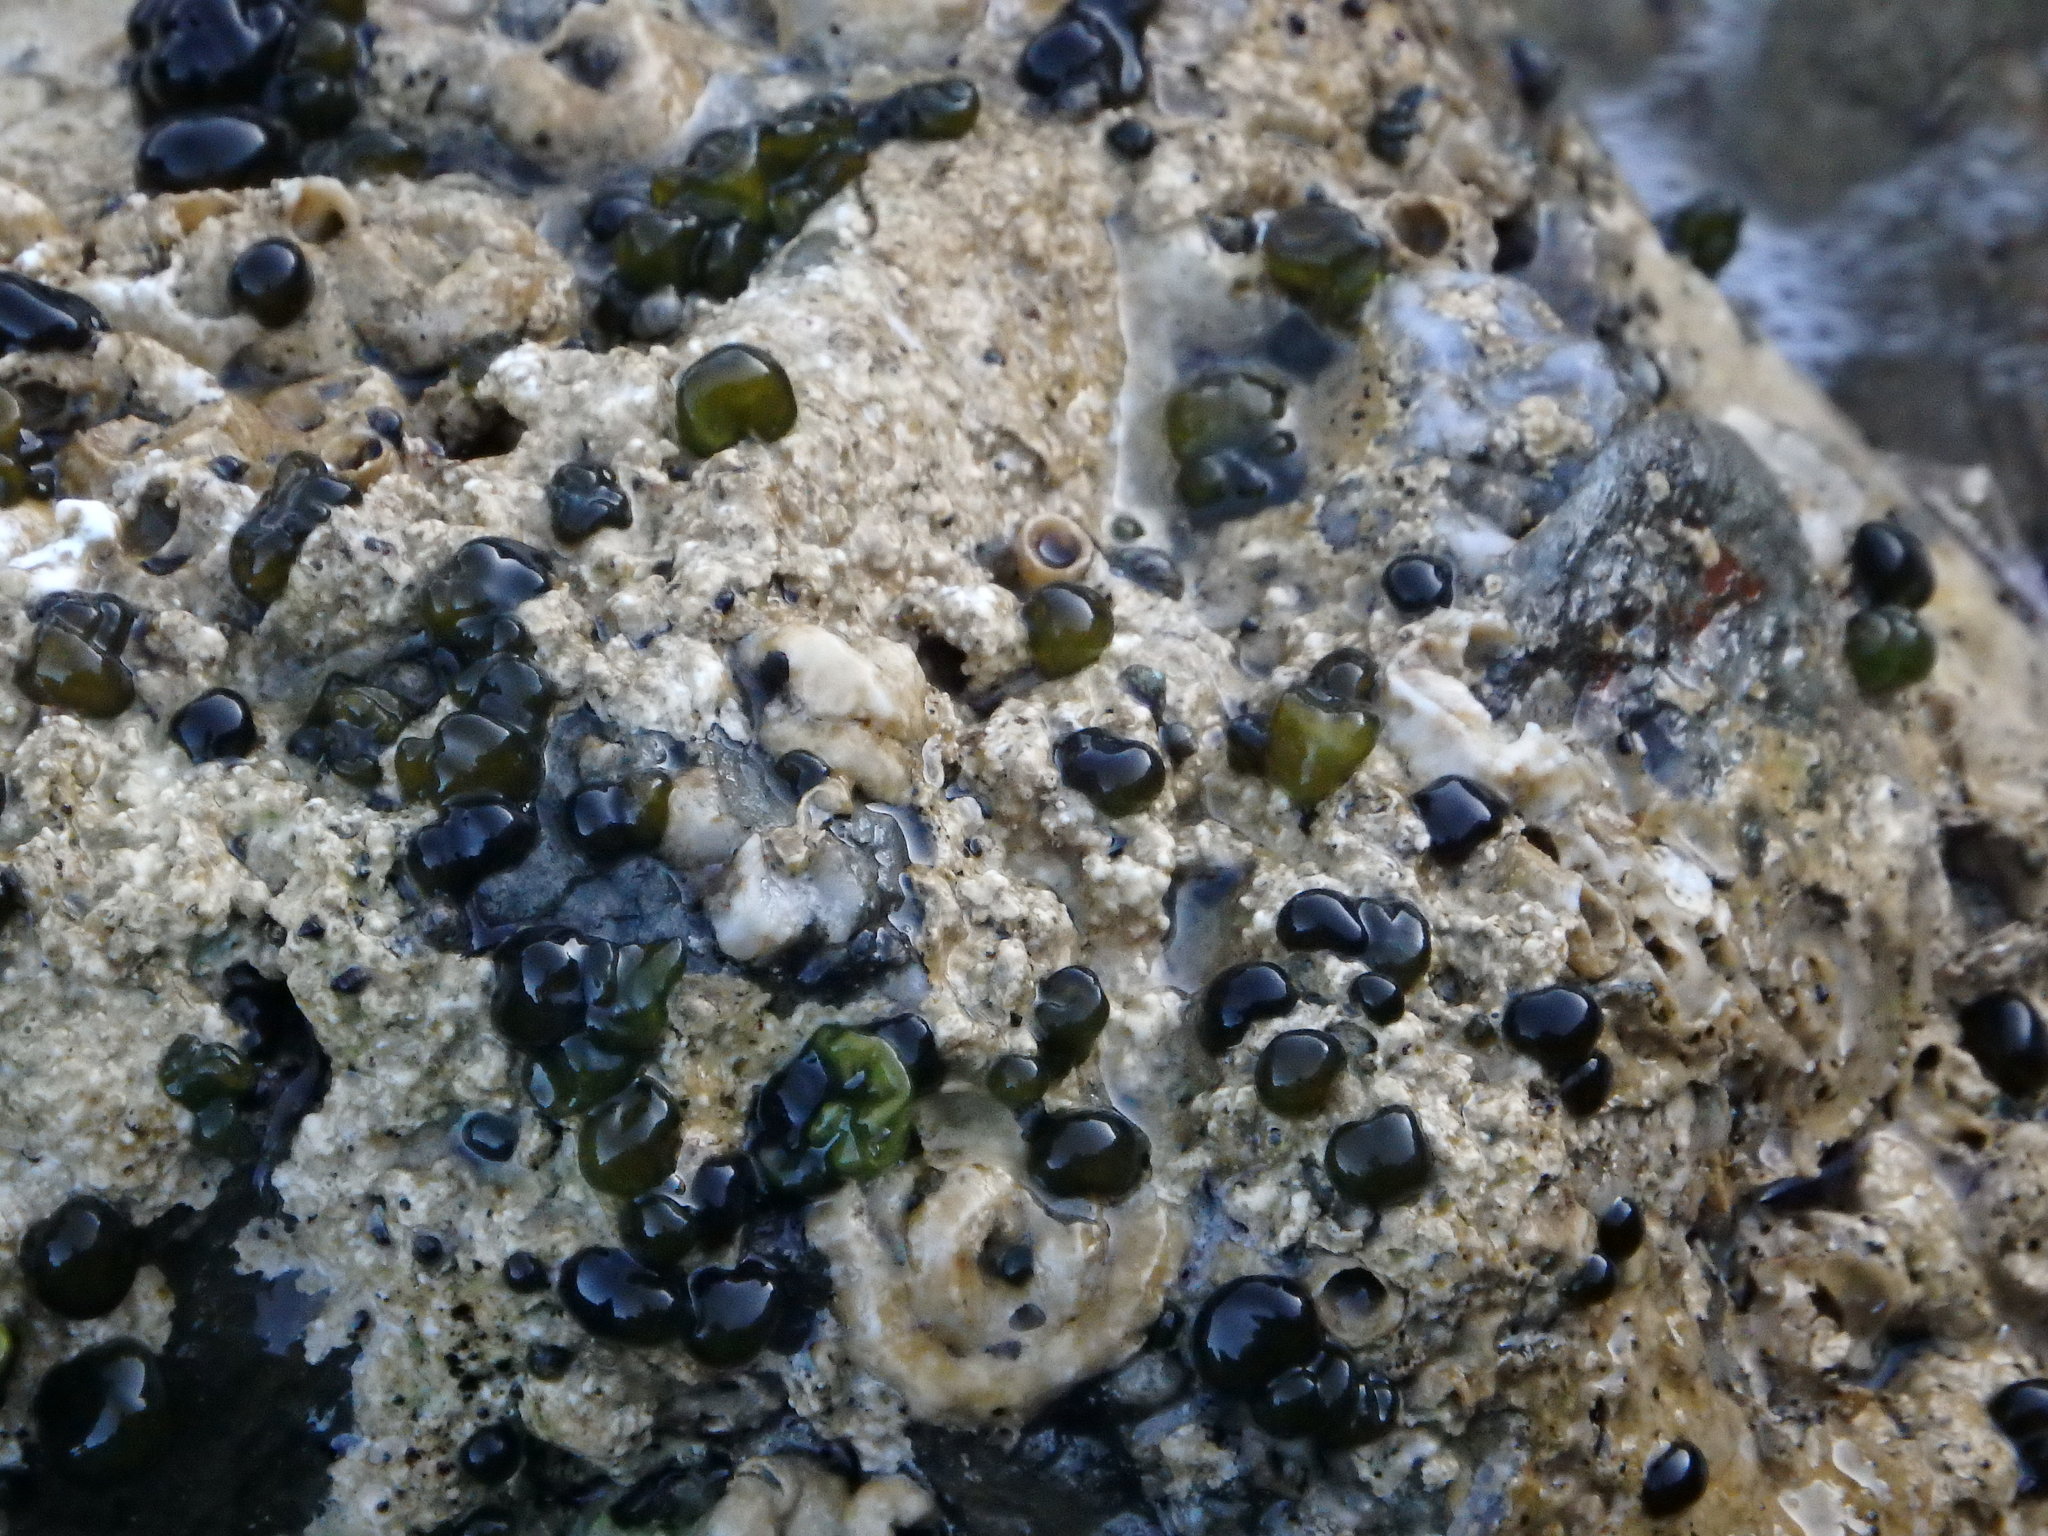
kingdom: Bacteria
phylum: Cyanobacteria
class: Cyanobacteriia
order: Cyanobacteriales
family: Nostocaceae
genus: Rivularia
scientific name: Rivularia atra
